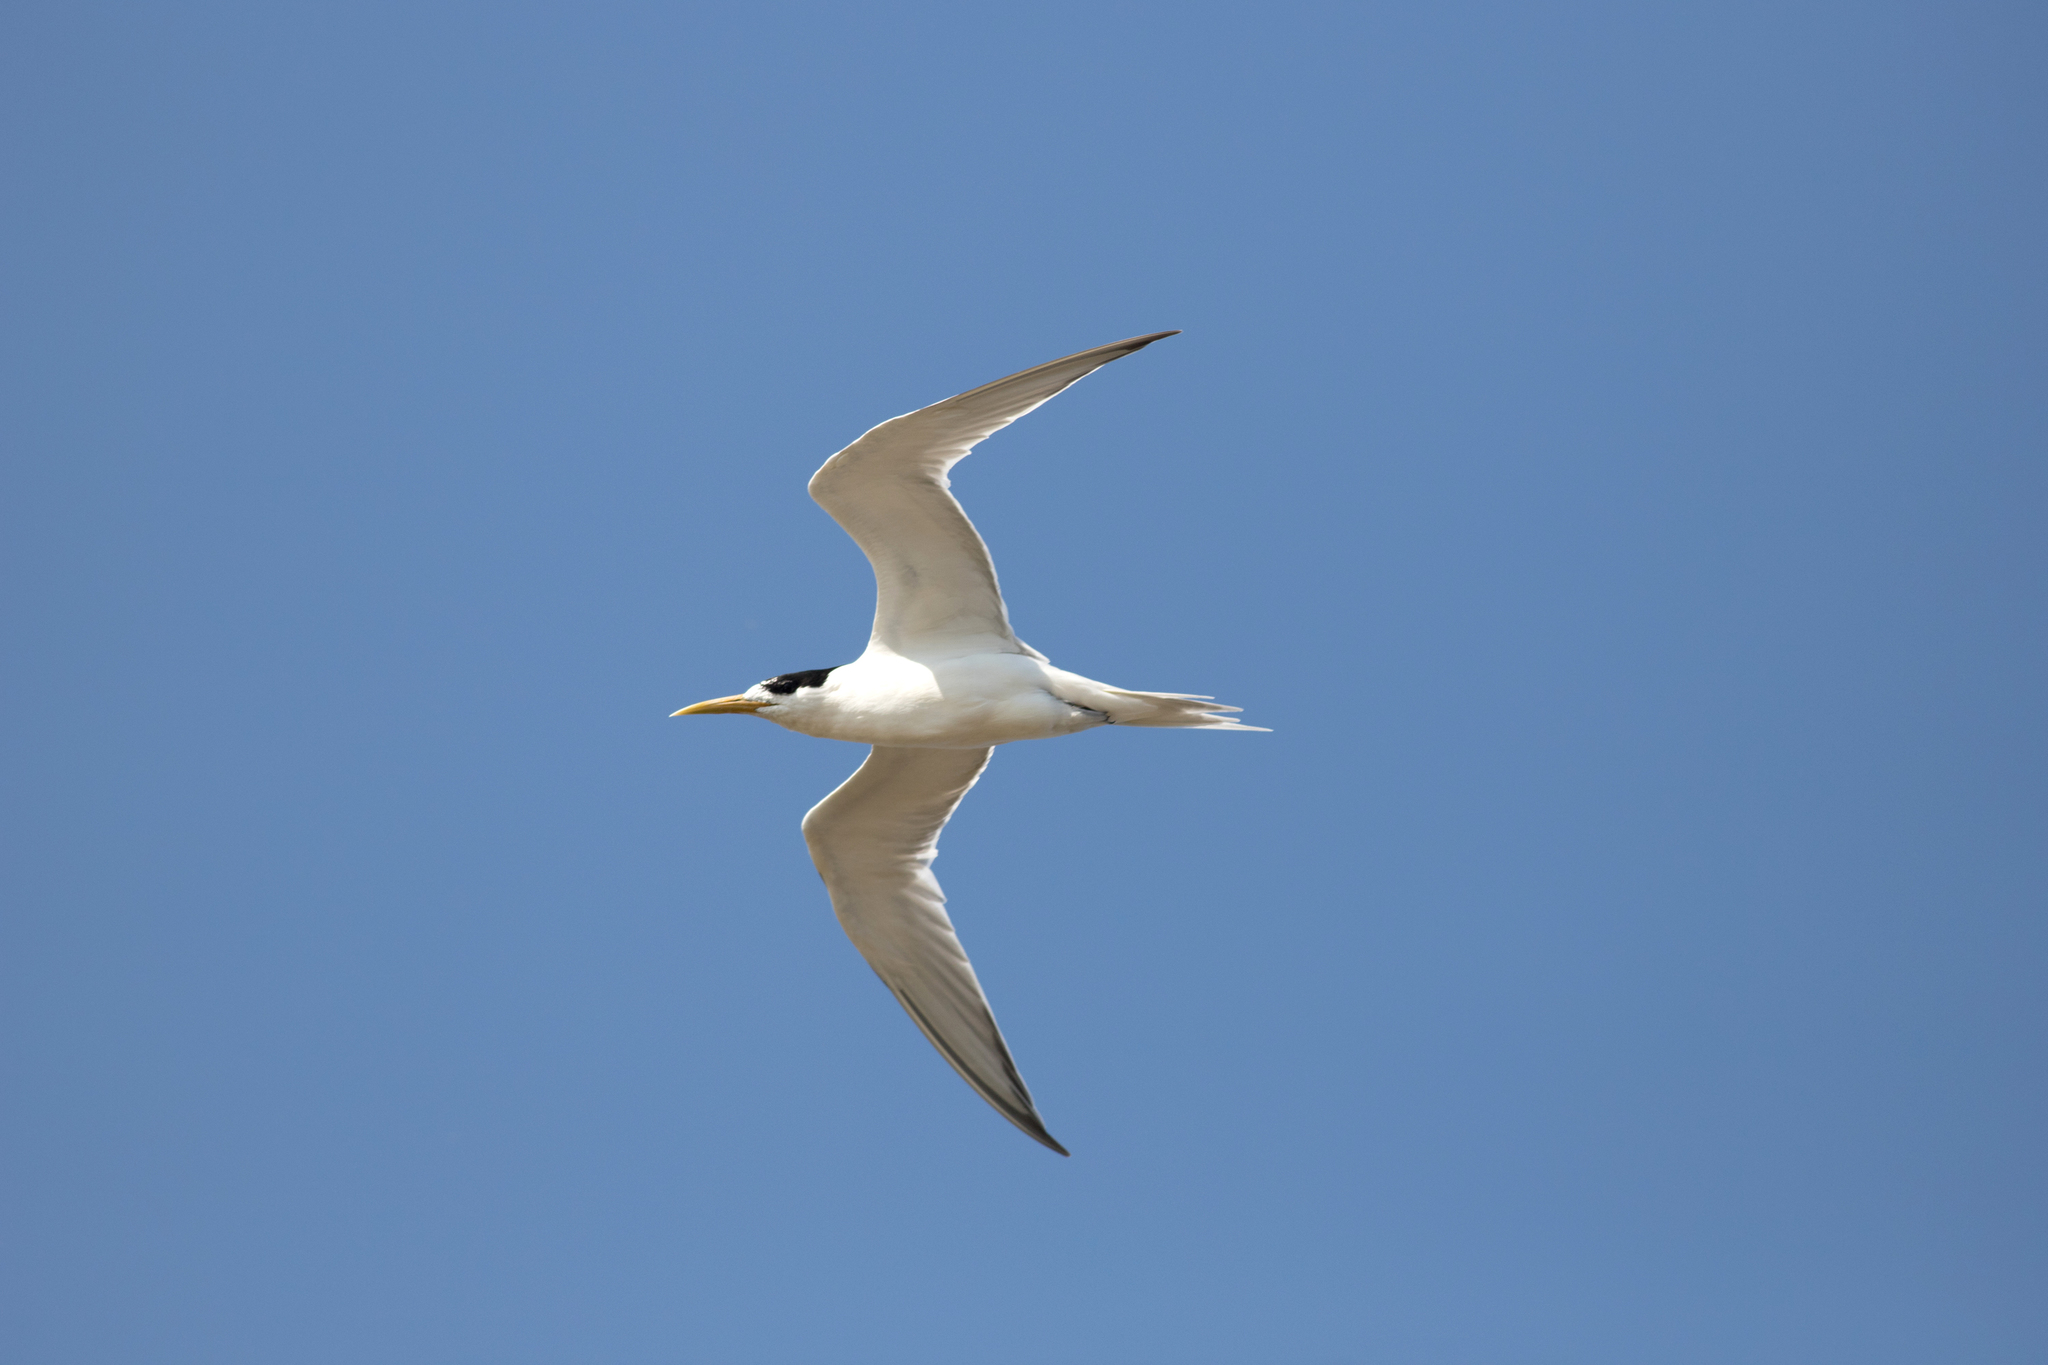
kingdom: Animalia
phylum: Chordata
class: Aves
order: Charadriiformes
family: Laridae
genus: Thalasseus
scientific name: Thalasseus bergii
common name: Greater crested tern
